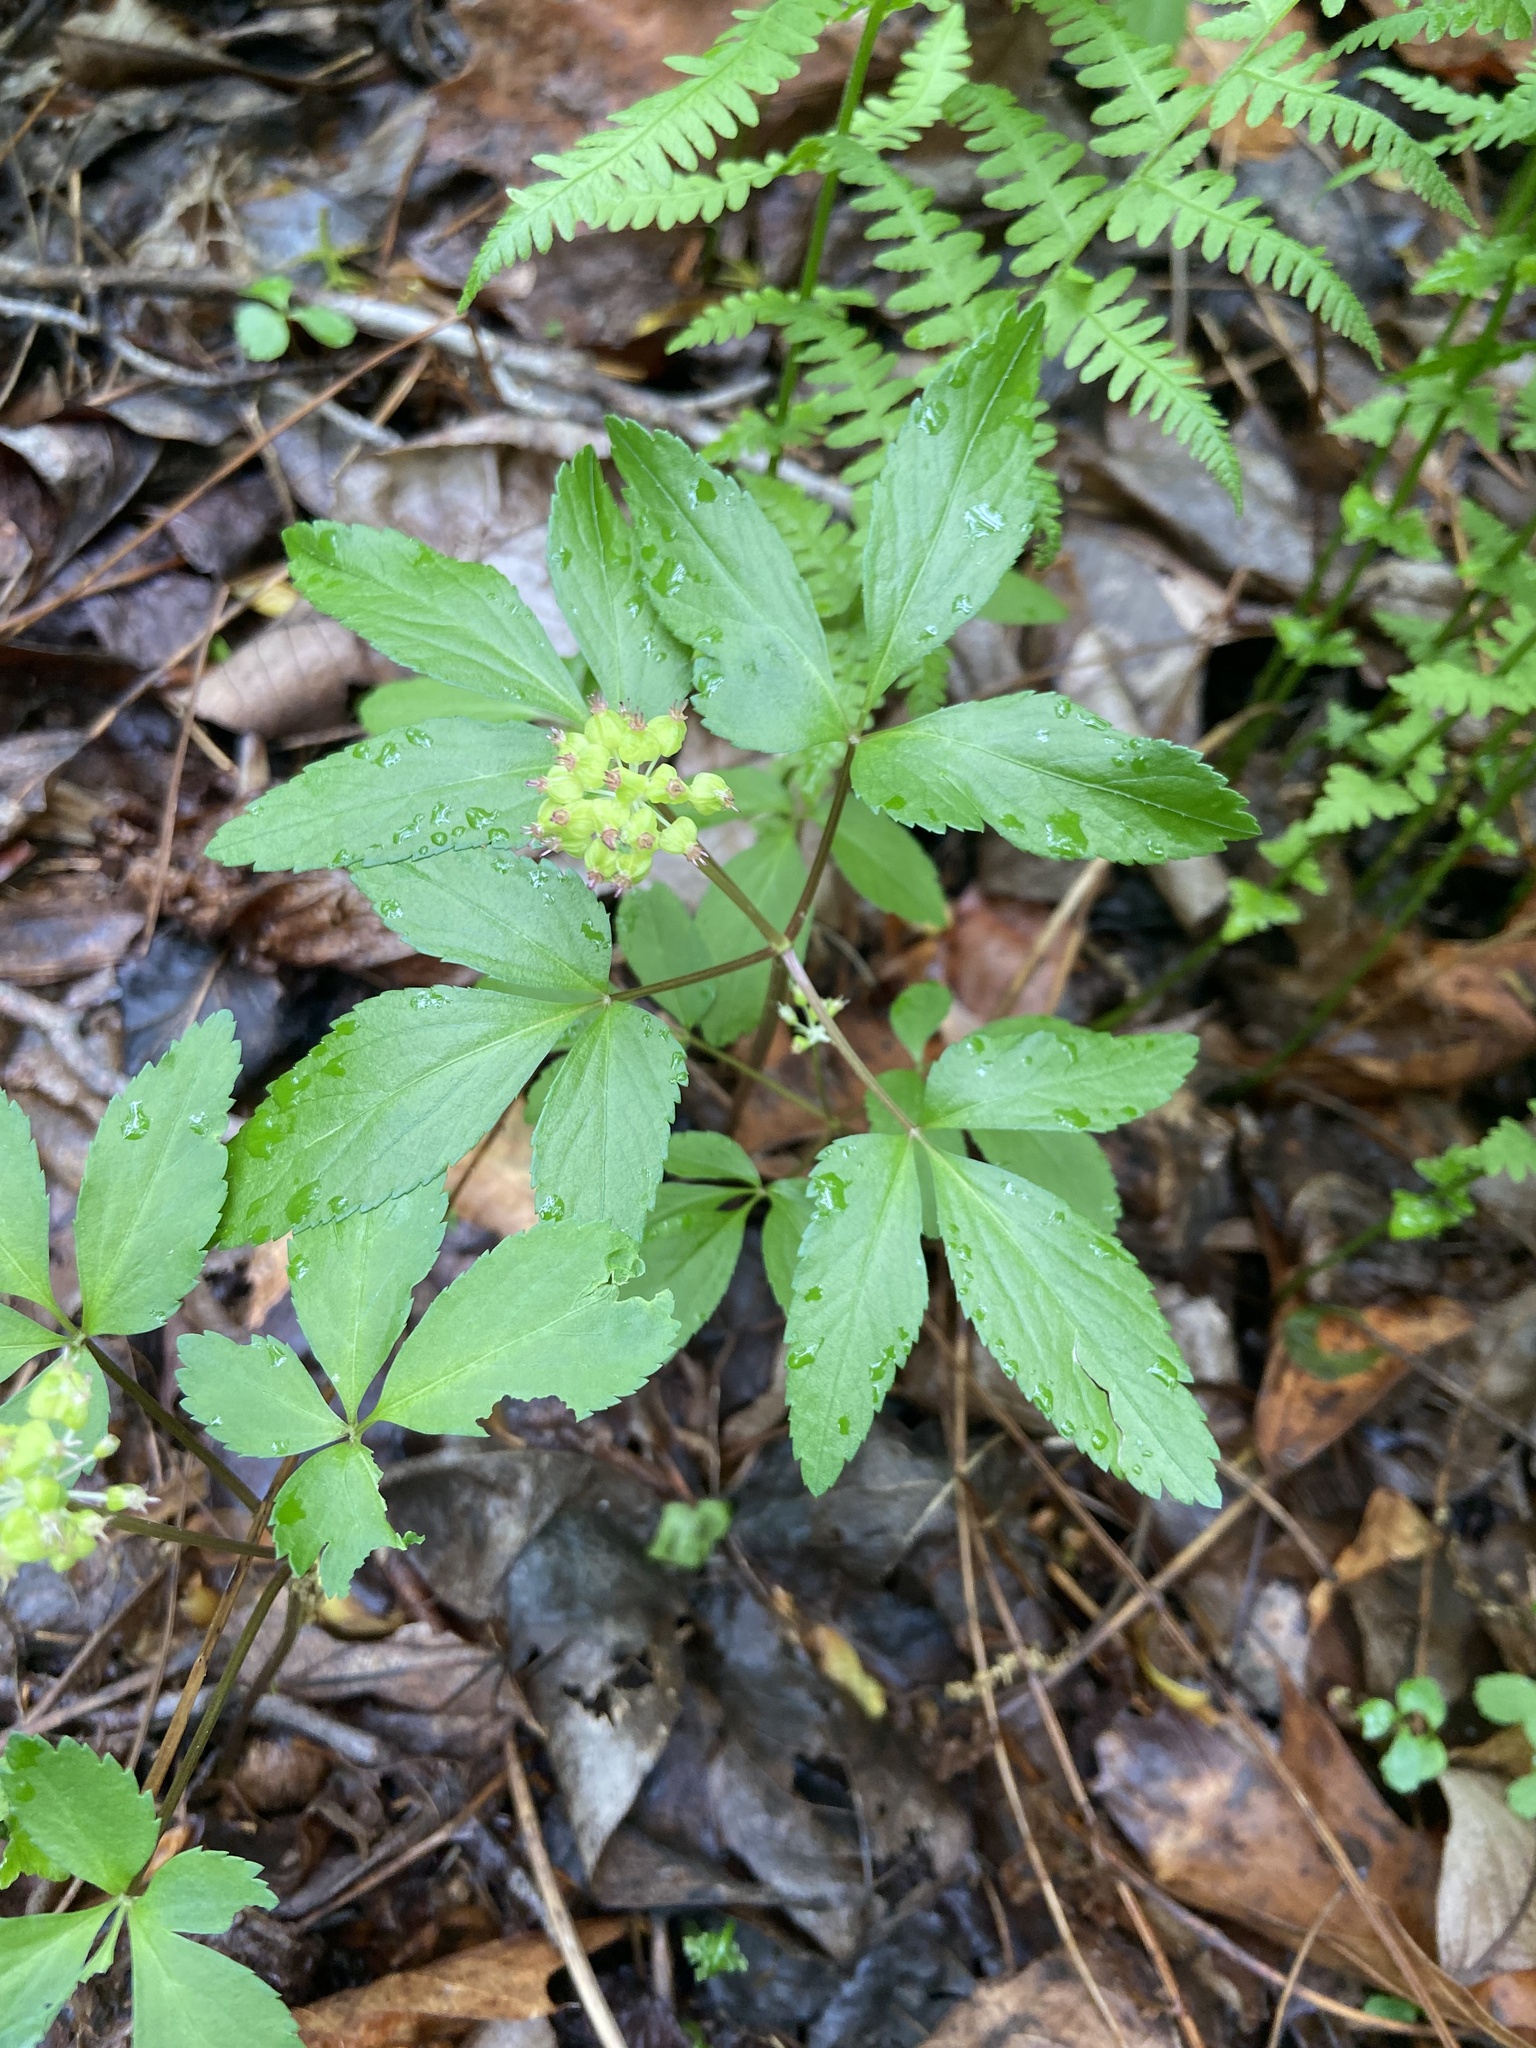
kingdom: Plantae
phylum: Tracheophyta
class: Magnoliopsida
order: Apiales
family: Araliaceae
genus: Panax
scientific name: Panax trifolius
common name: Dwarf ginseng
